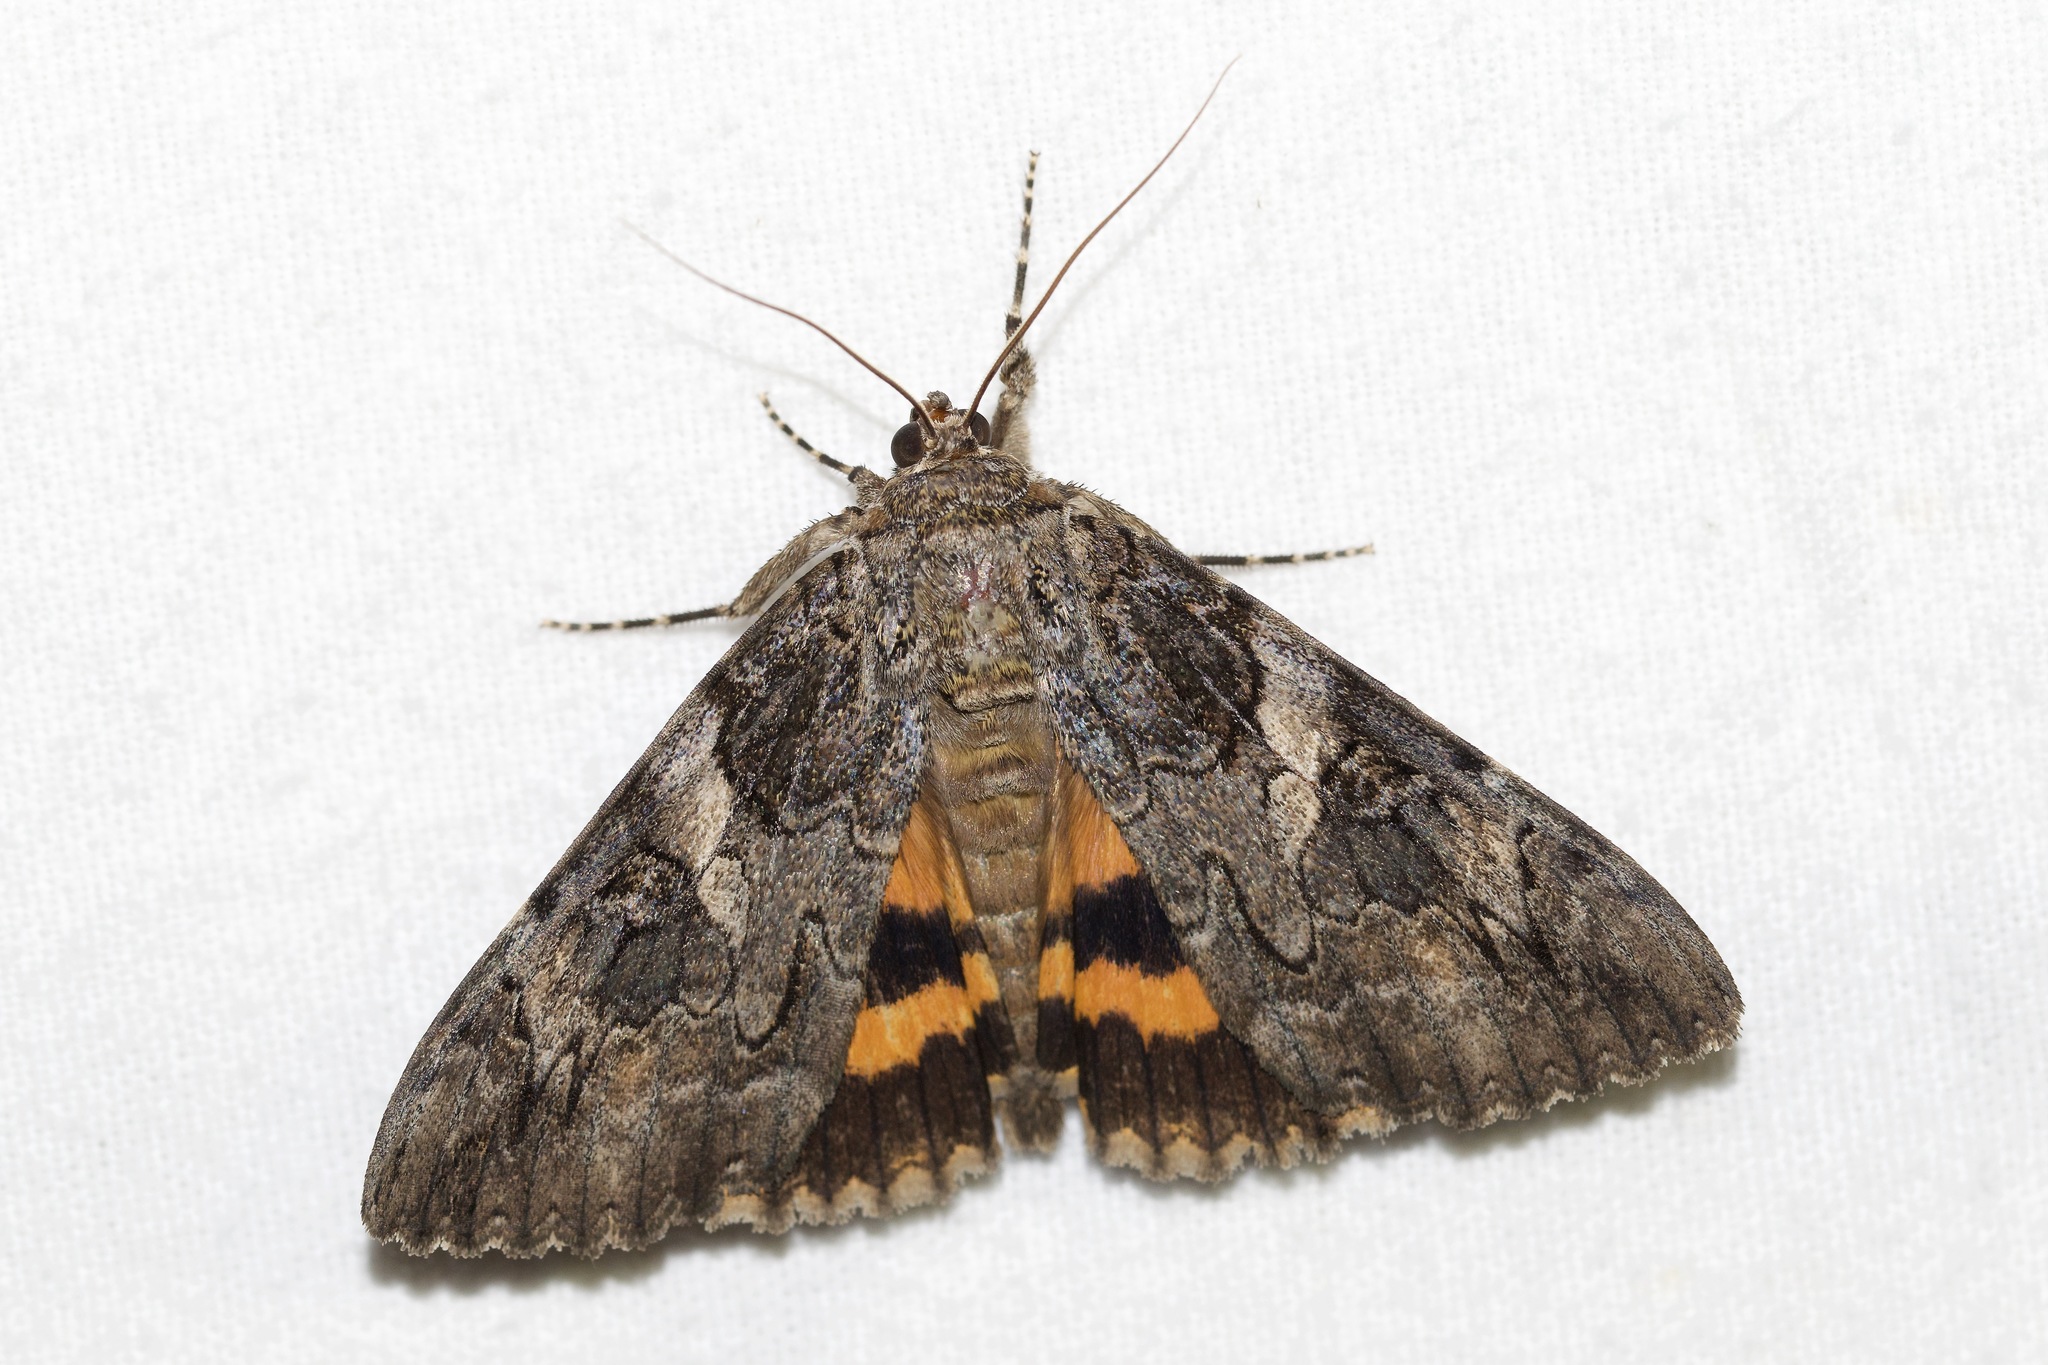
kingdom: Animalia
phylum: Arthropoda
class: Insecta
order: Lepidoptera
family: Erebidae
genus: Catocala
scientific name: Catocala piatrix
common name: The penitent underwing
